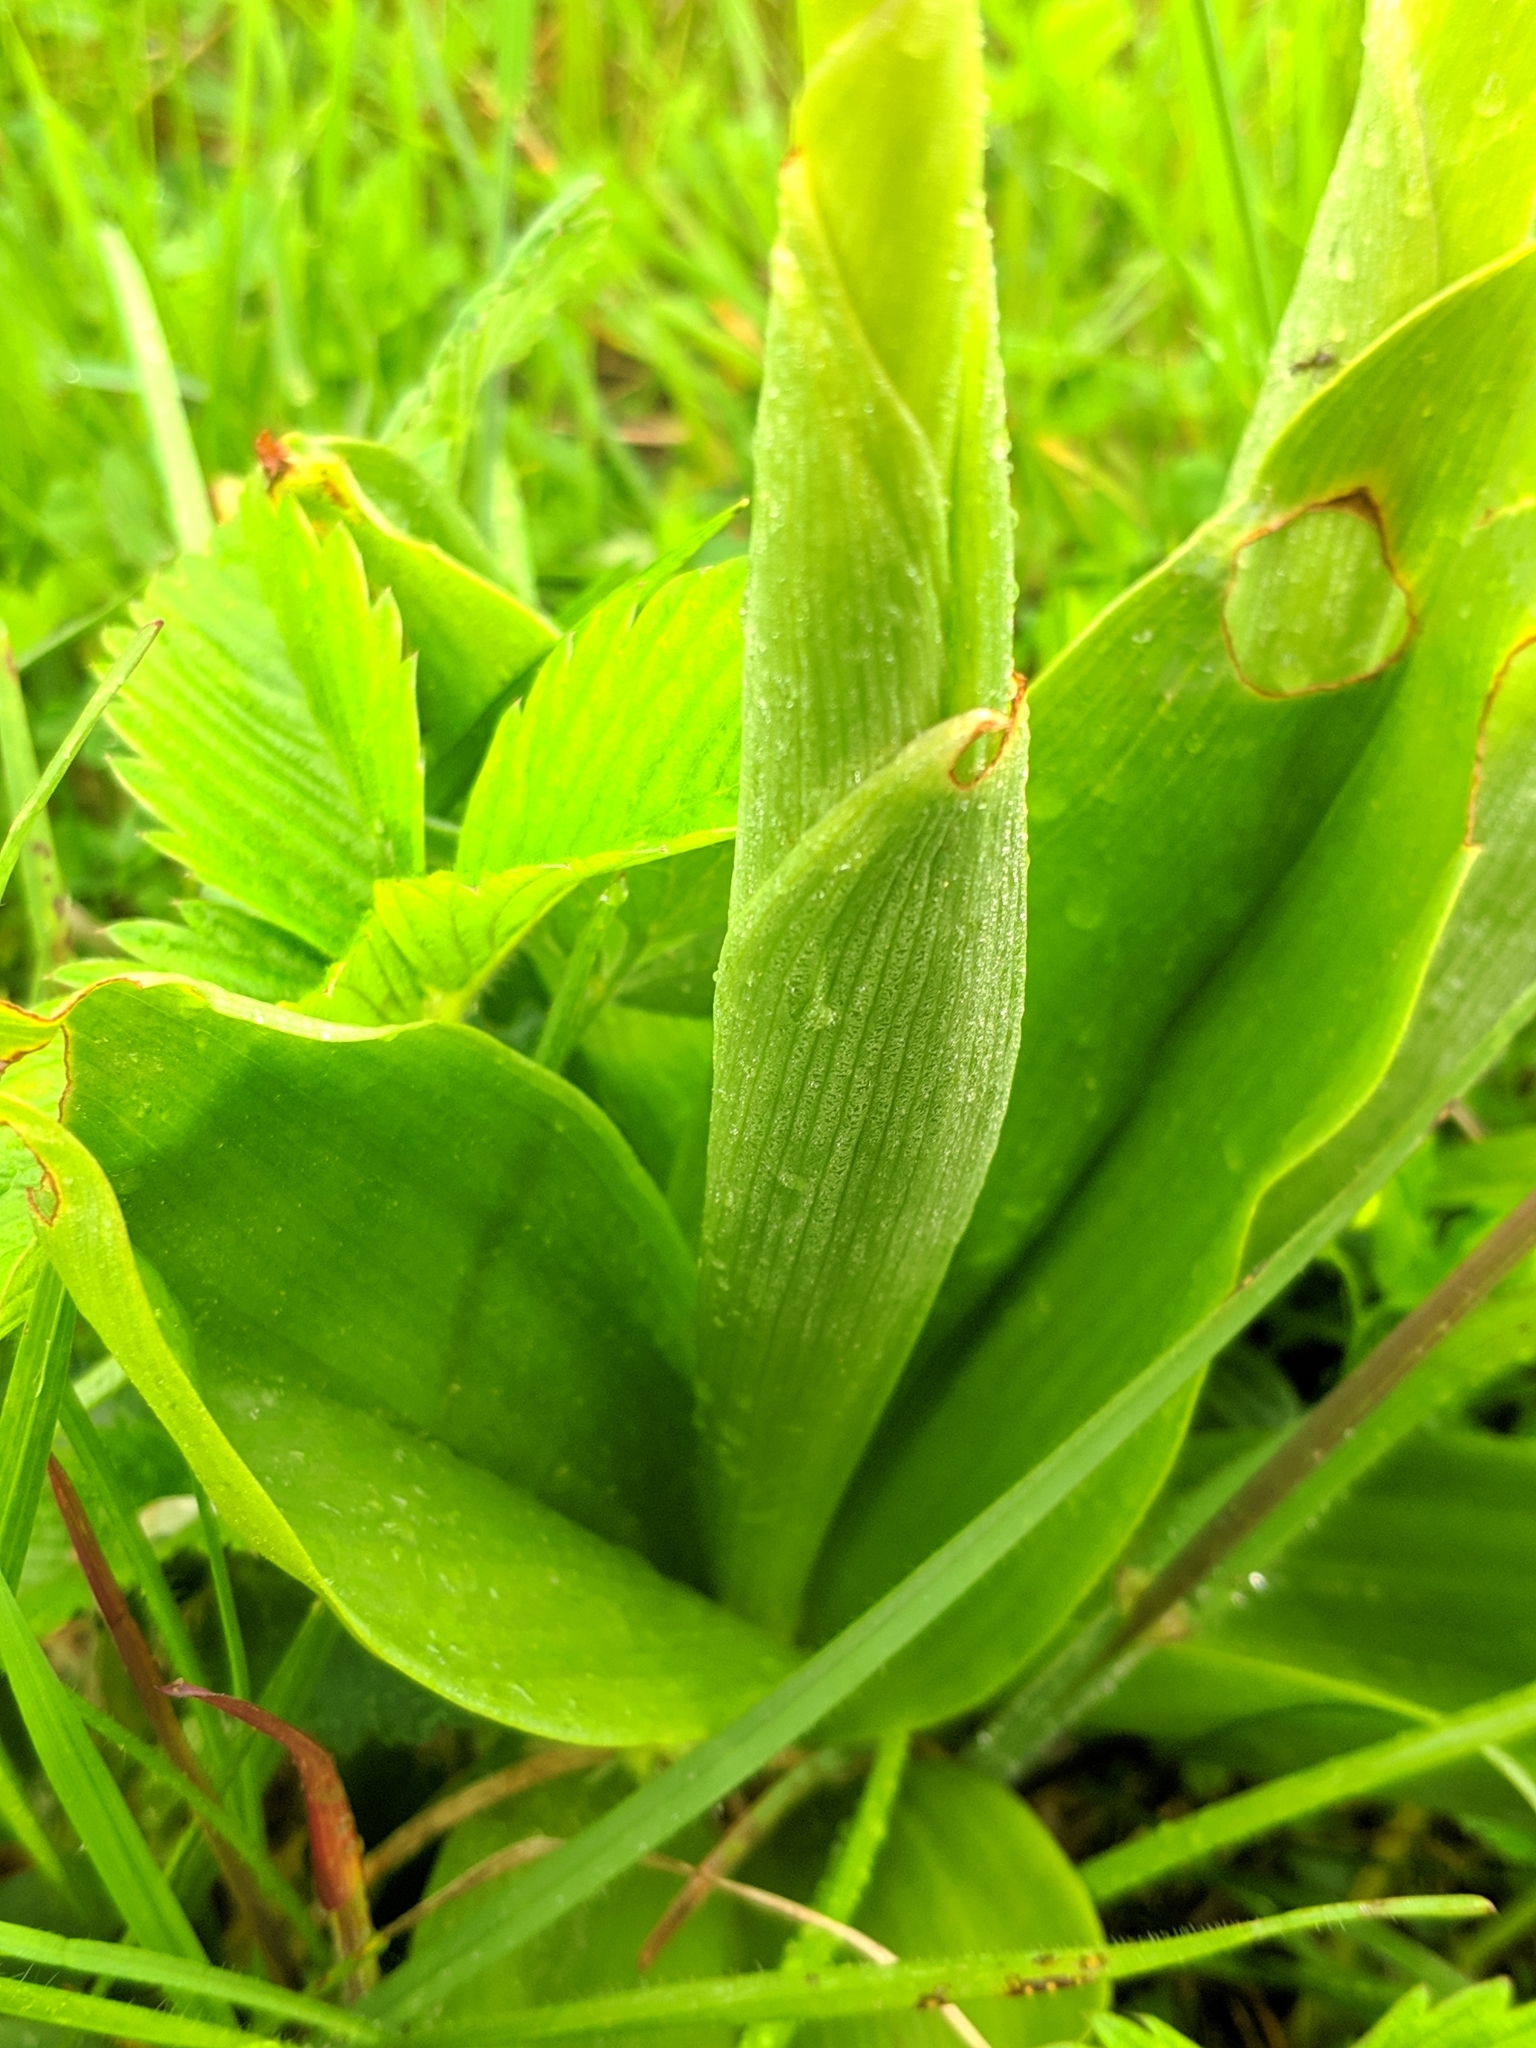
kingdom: Plantae
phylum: Tracheophyta
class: Liliopsida
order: Asparagales
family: Orchidaceae
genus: Orchis
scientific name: Orchis militaris
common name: Military orchid
